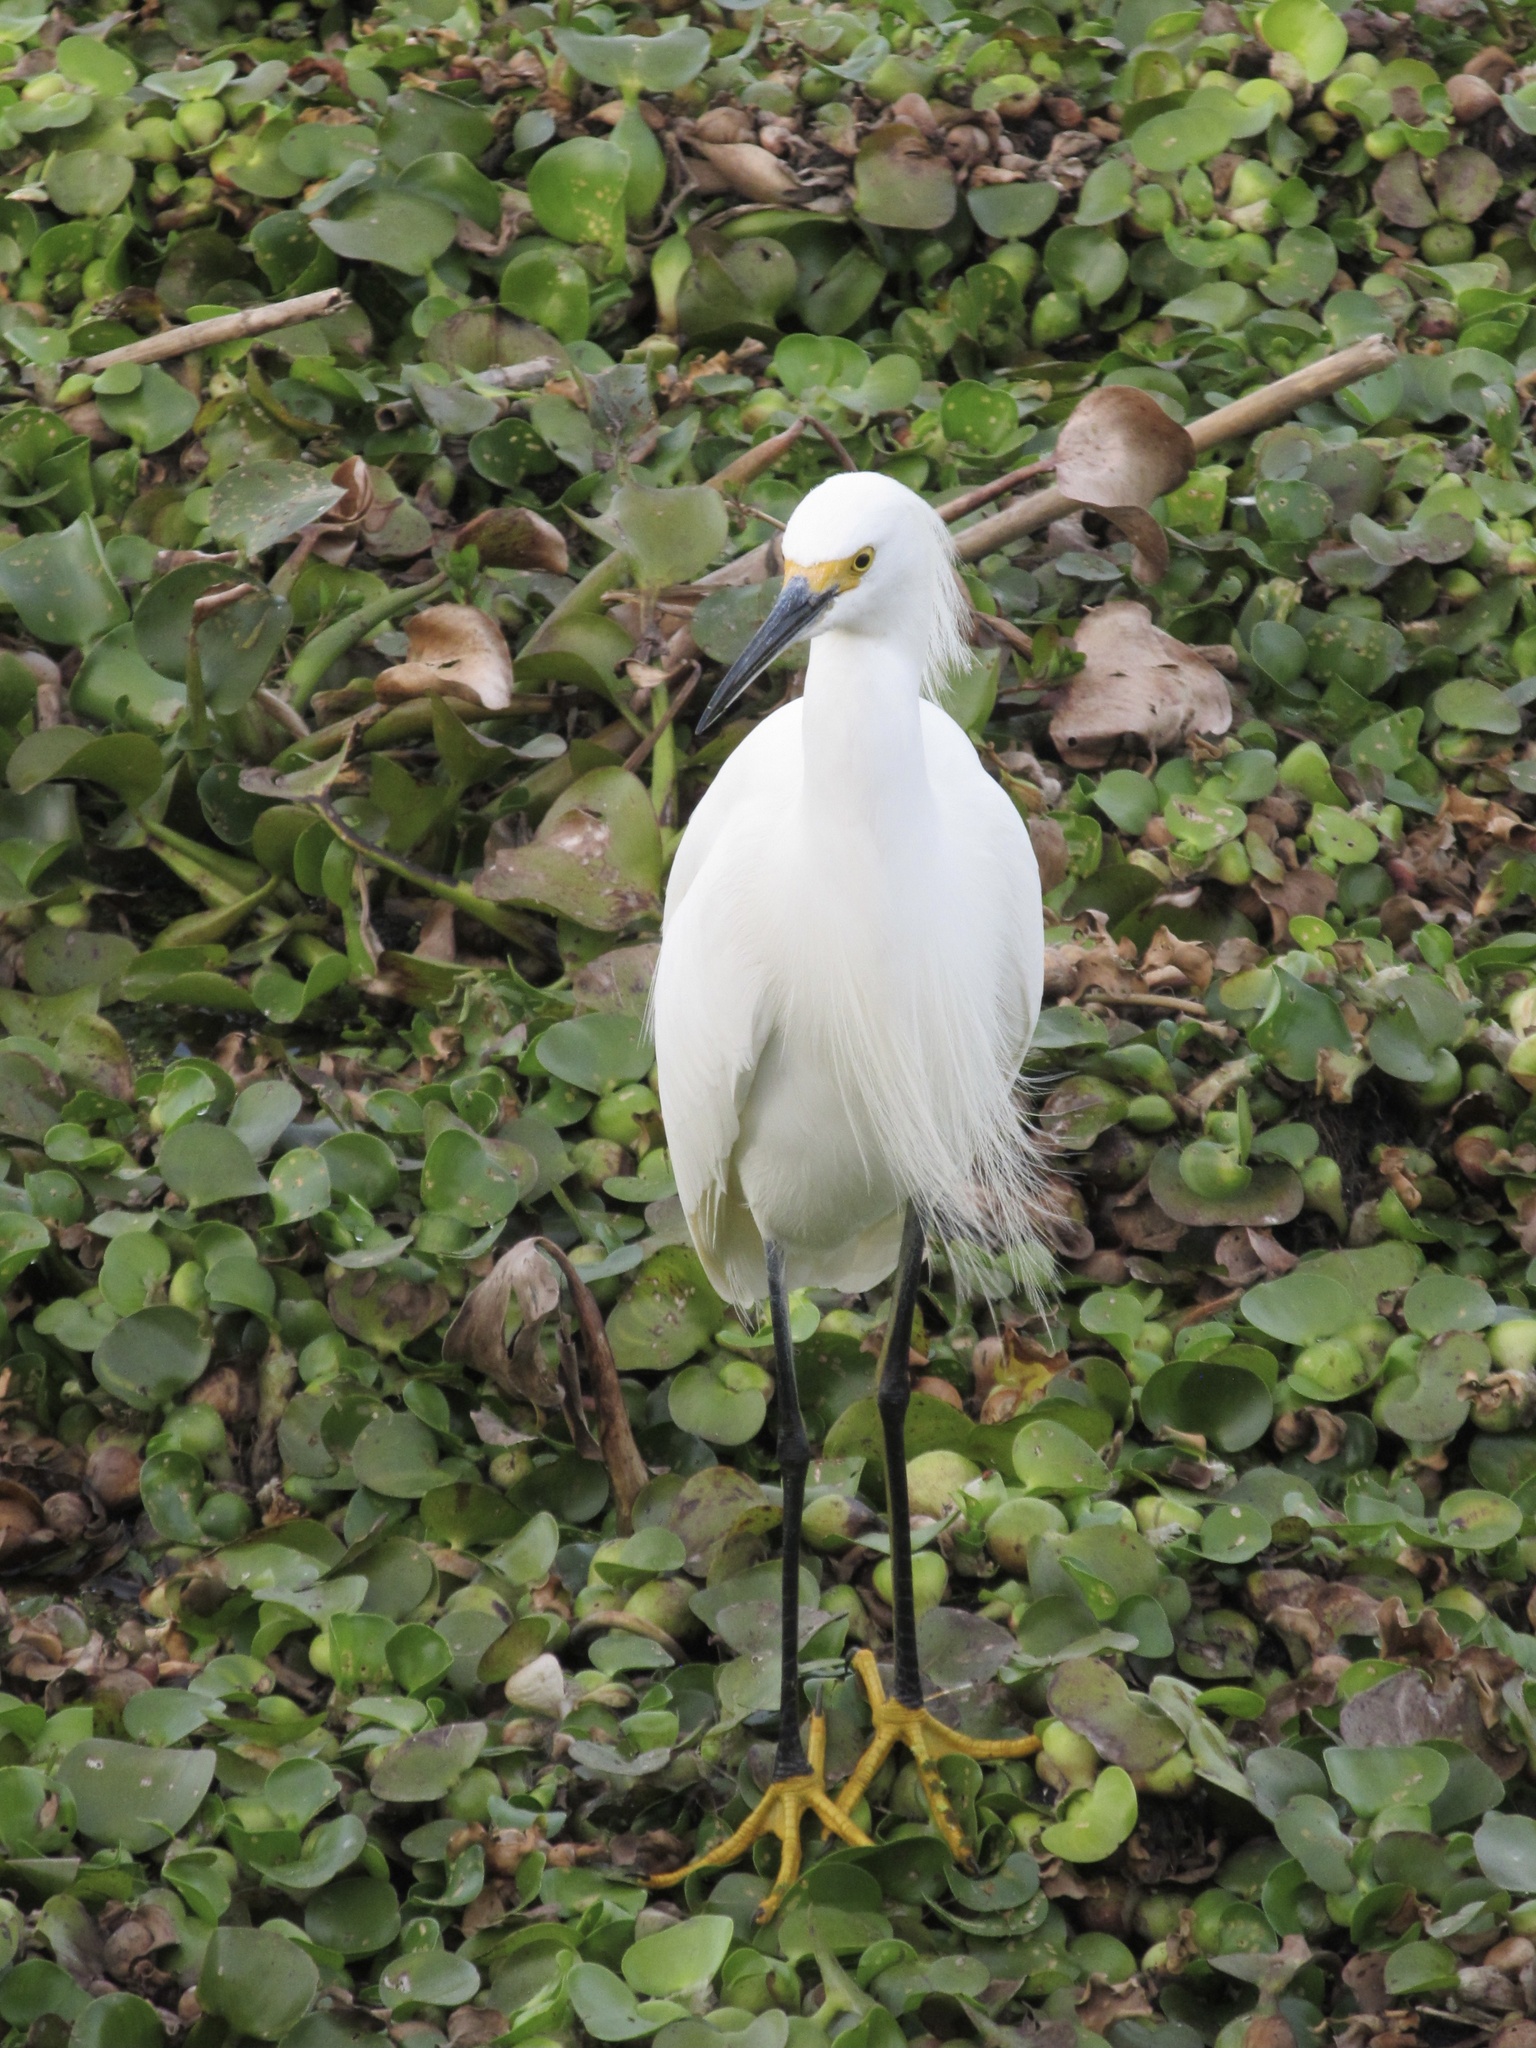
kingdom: Animalia
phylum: Chordata
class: Aves
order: Pelecaniformes
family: Ardeidae
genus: Egretta
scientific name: Egretta thula
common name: Snowy egret
